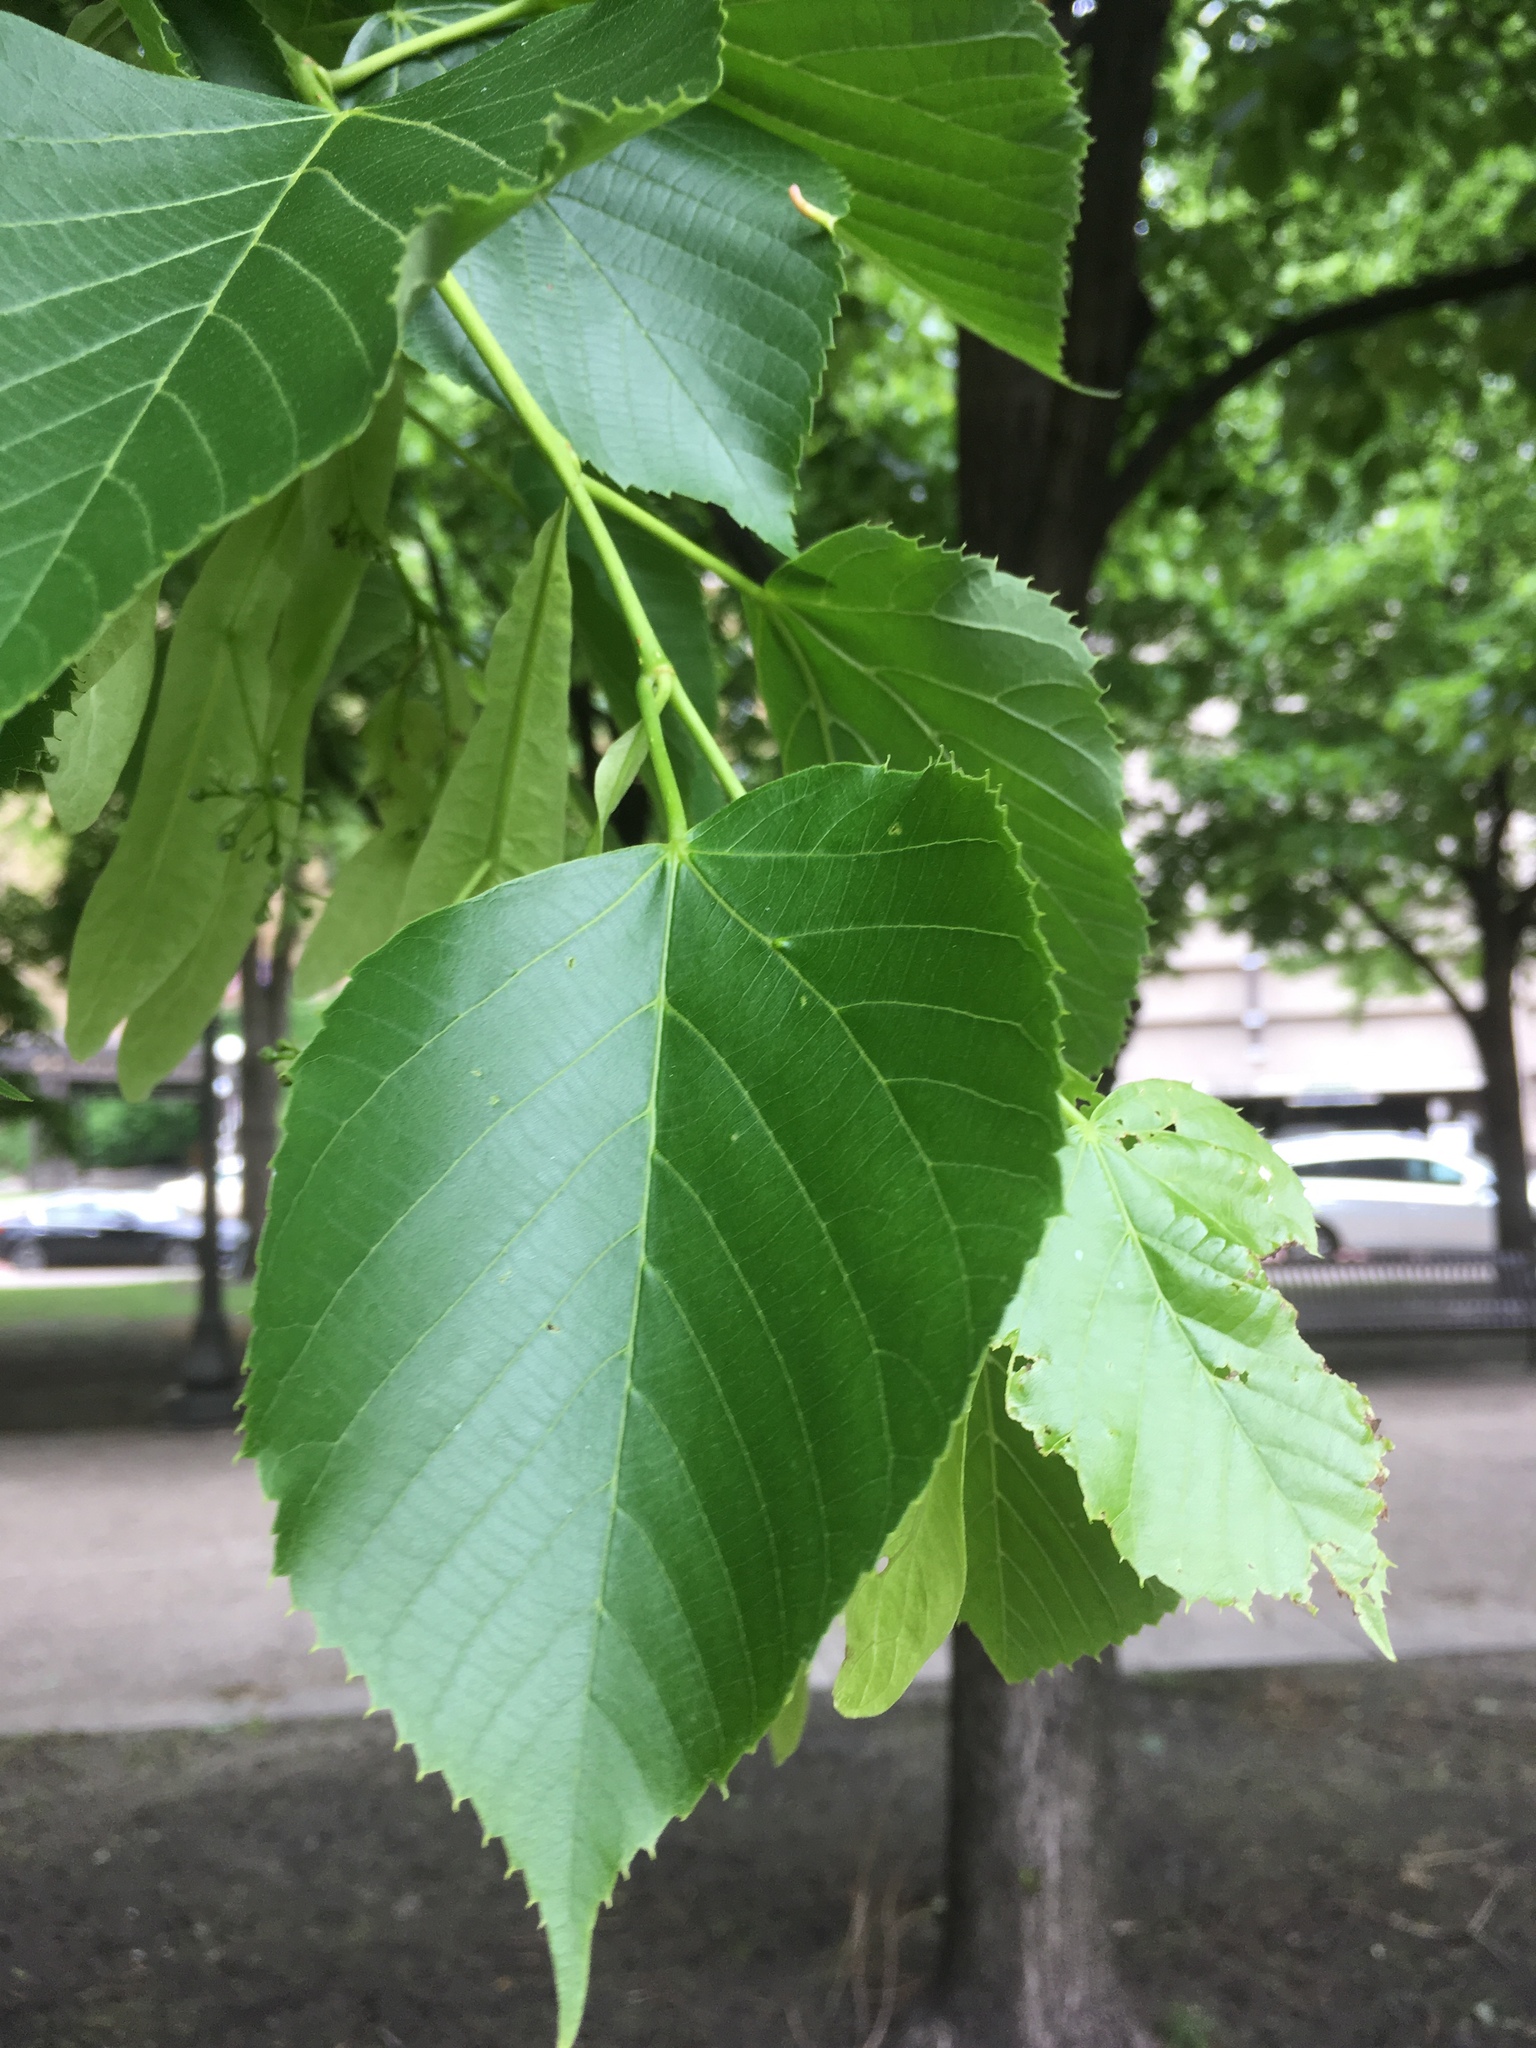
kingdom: Plantae
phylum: Tracheophyta
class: Magnoliopsida
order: Malvales
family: Malvaceae
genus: Tilia
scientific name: Tilia americana
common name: Basswood
